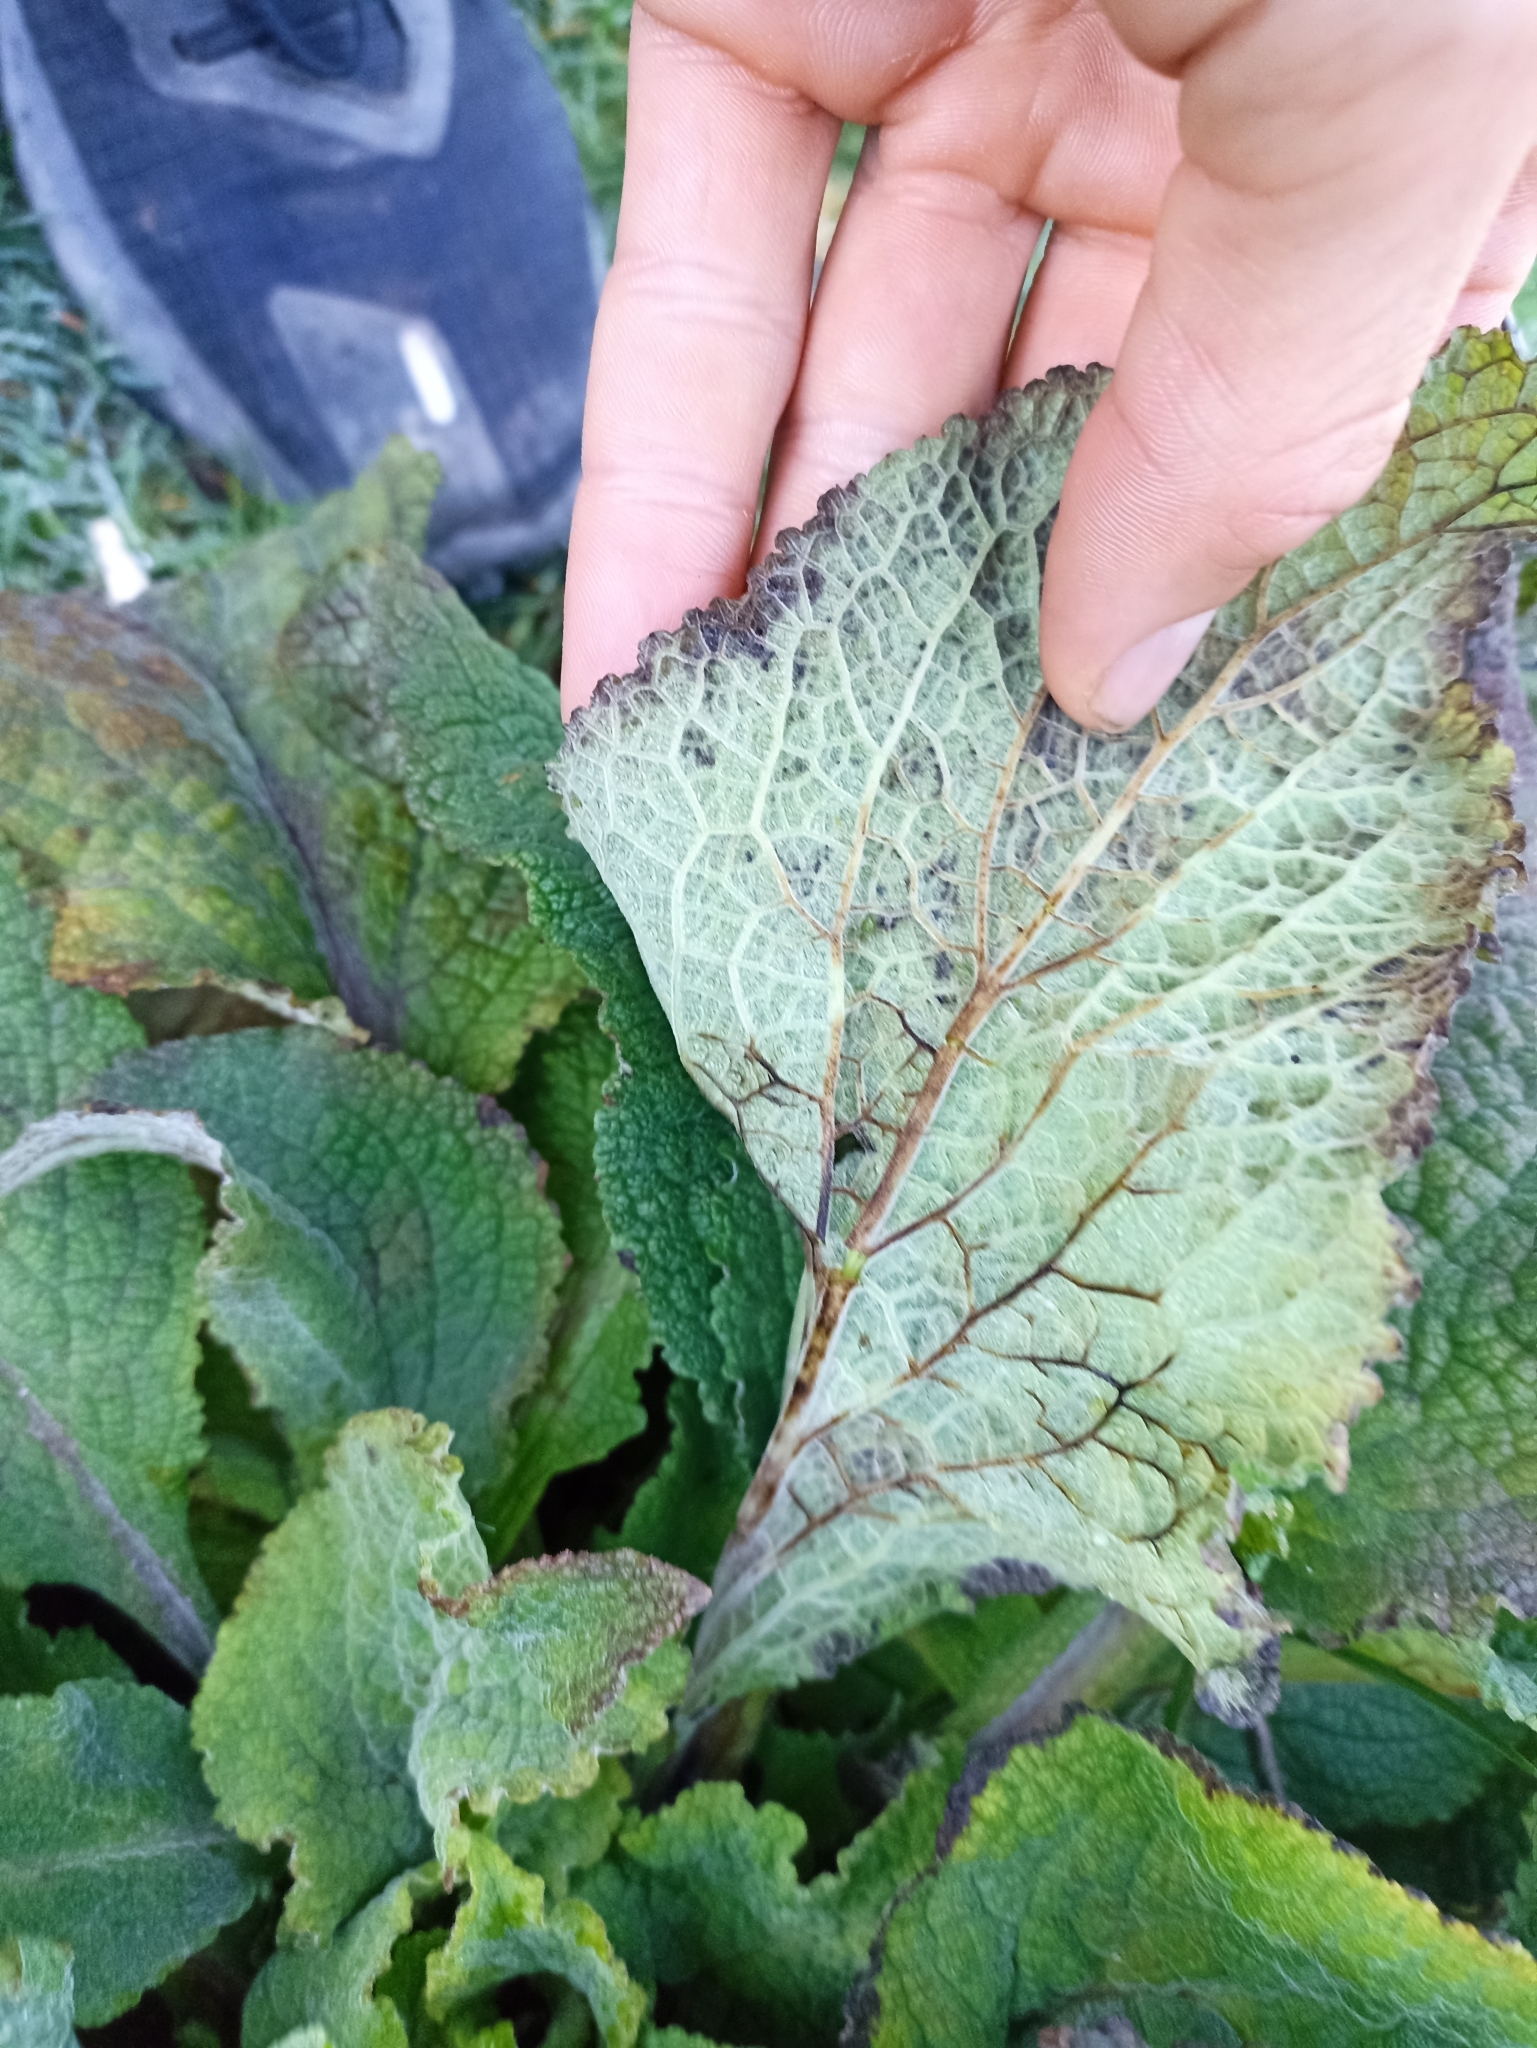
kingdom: Plantae
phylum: Tracheophyta
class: Magnoliopsida
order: Lamiales
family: Plantaginaceae
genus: Digitalis
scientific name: Digitalis purpurea
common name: Foxglove
